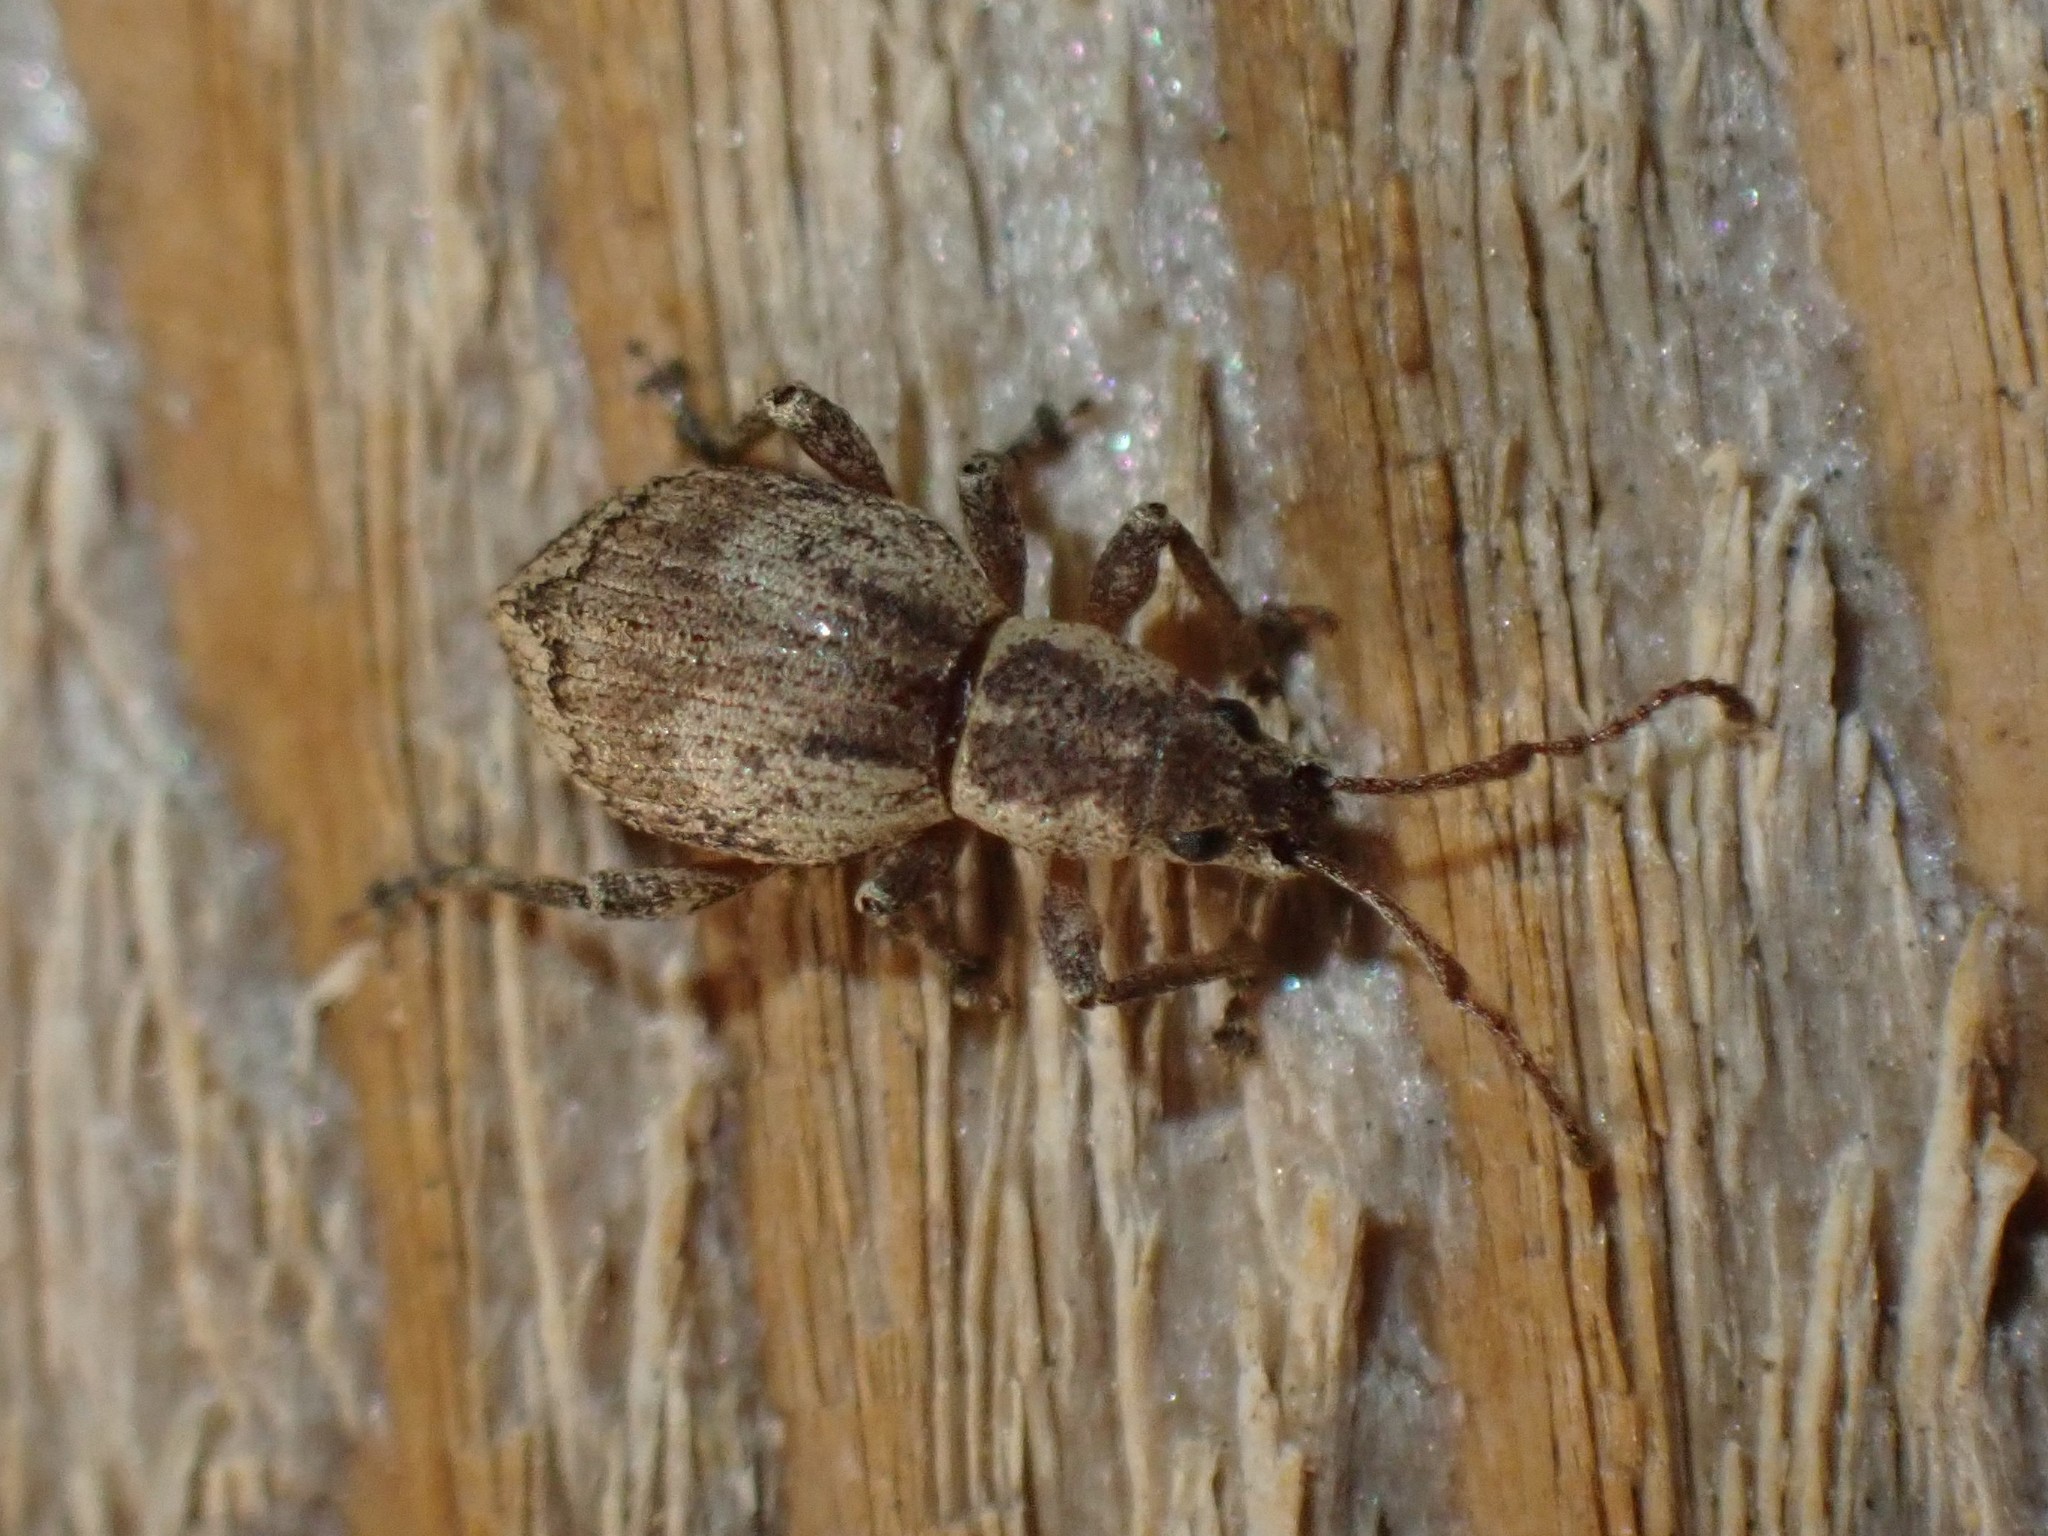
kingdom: Animalia
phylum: Arthropoda
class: Insecta
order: Coleoptera
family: Curculionidae
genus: Sciopithes
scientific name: Sciopithes obscurus
